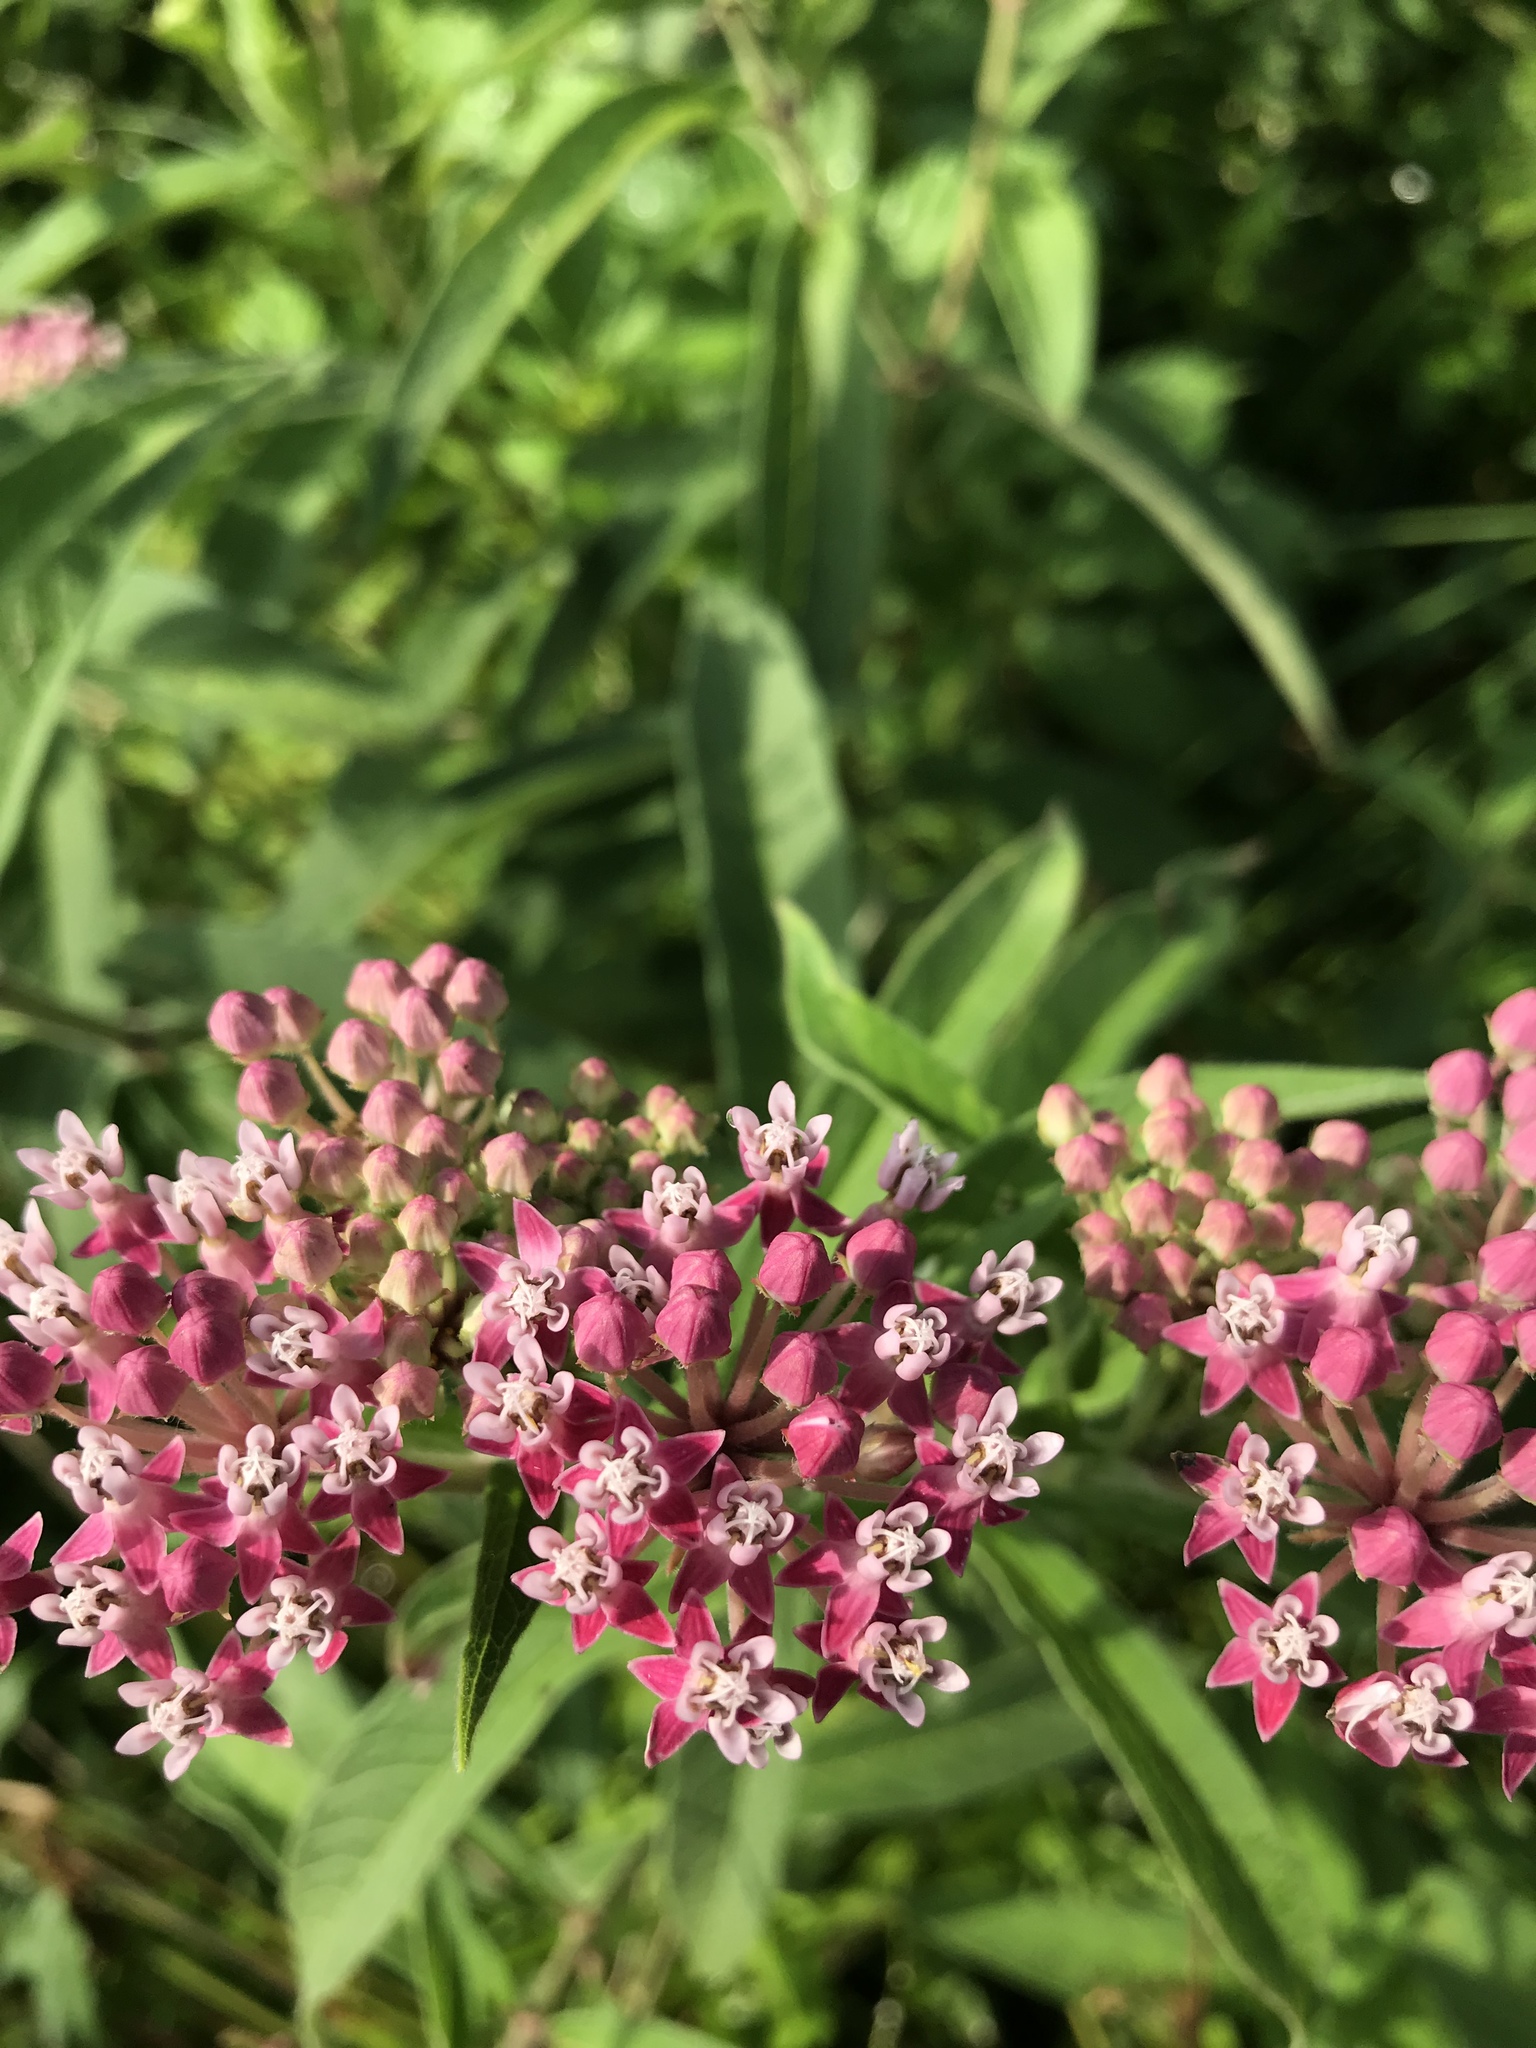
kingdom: Plantae
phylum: Tracheophyta
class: Magnoliopsida
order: Gentianales
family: Apocynaceae
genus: Asclepias
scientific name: Asclepias incarnata
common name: Swamp milkweed
